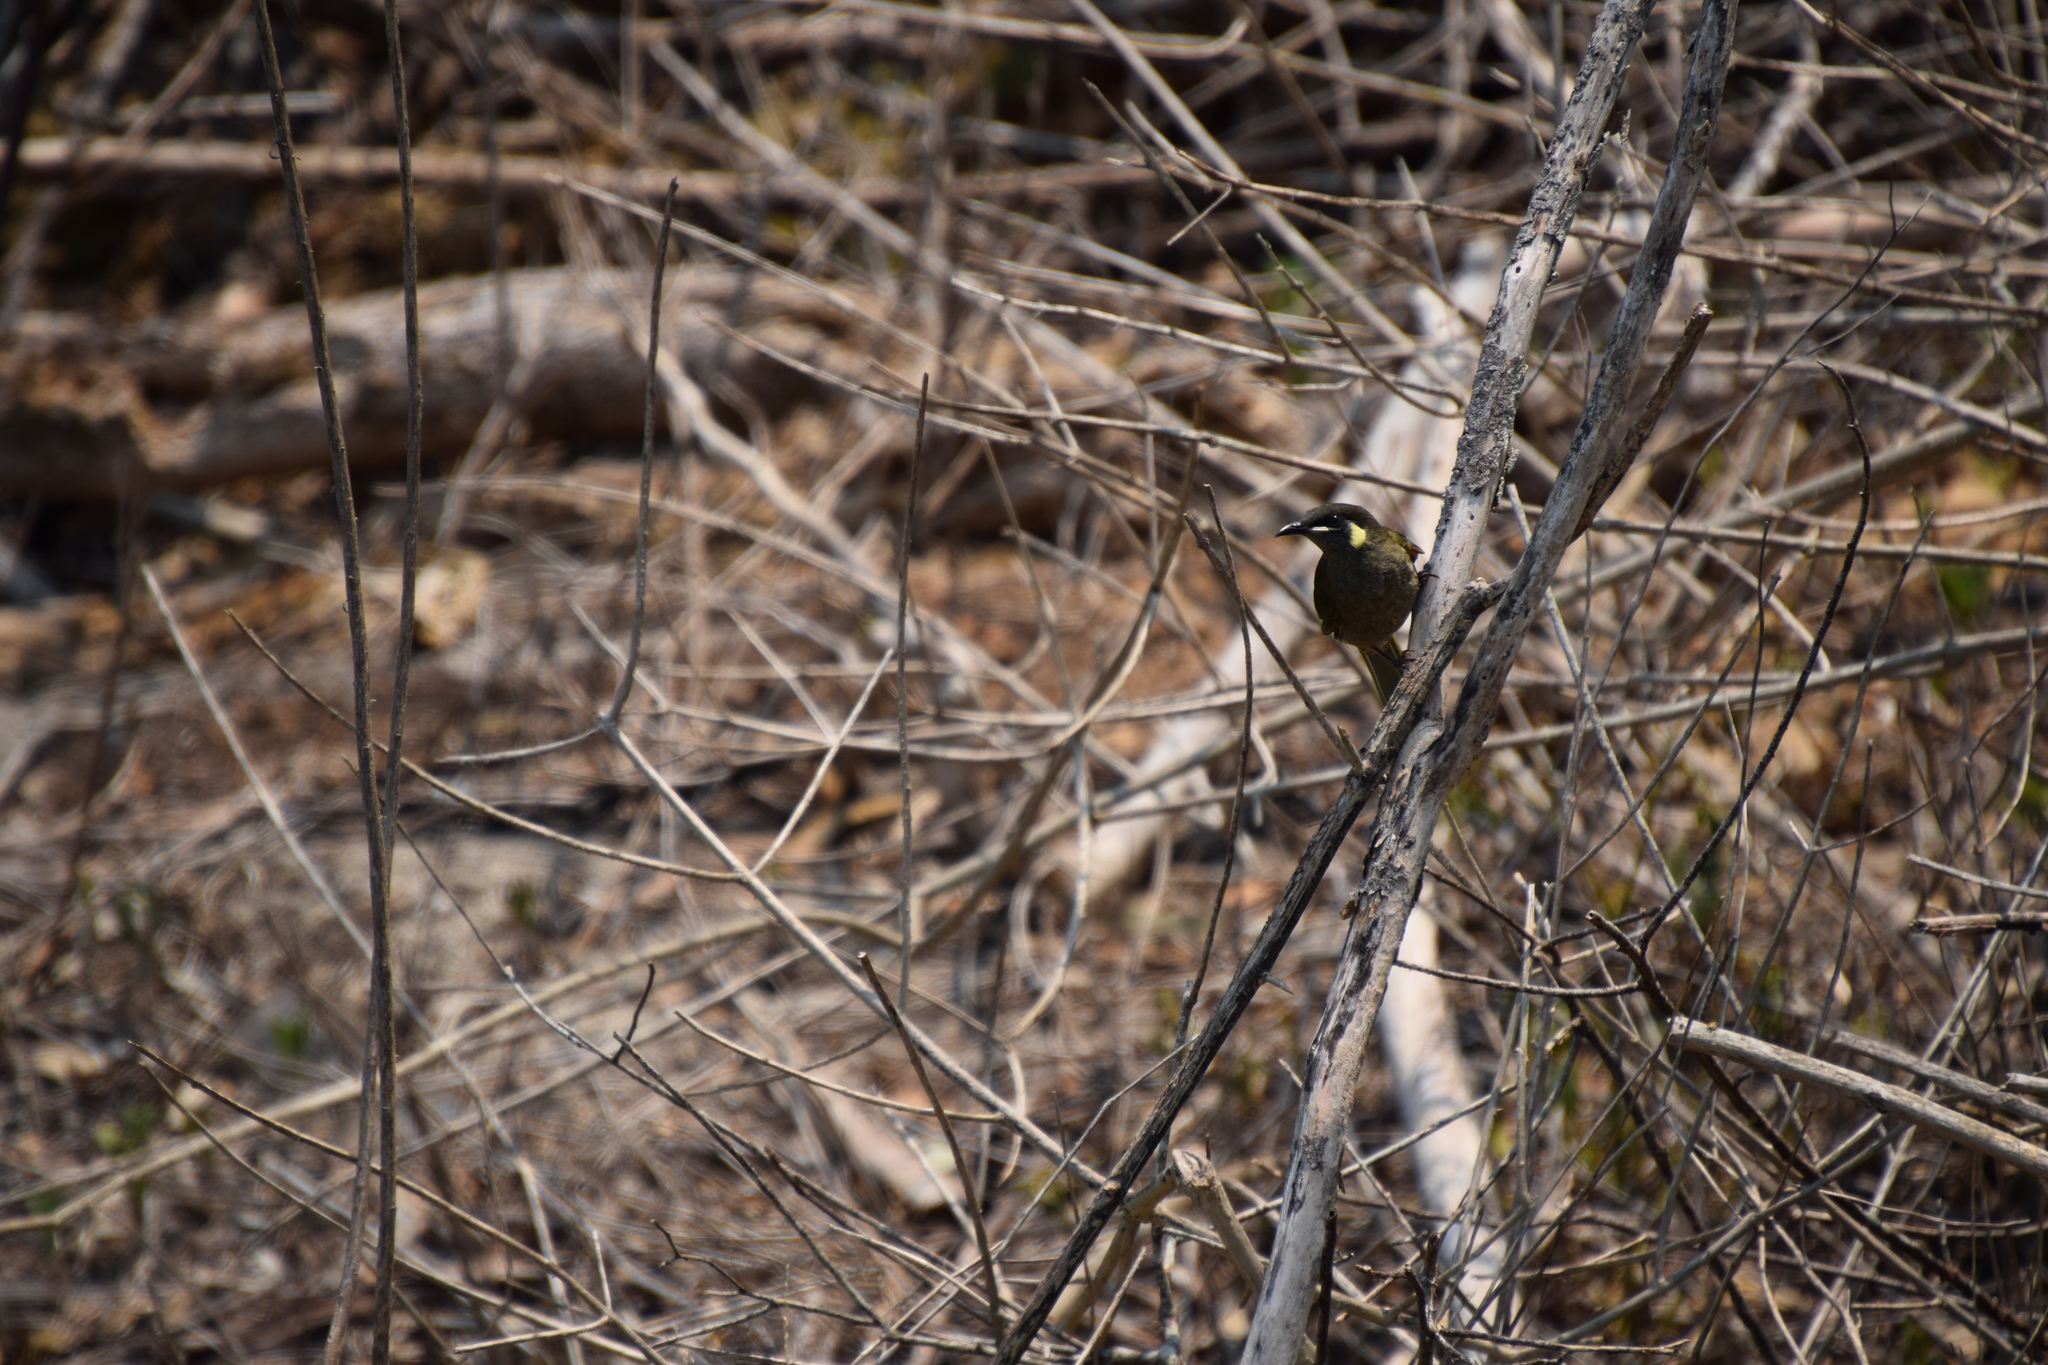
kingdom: Animalia
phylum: Chordata
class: Aves
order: Passeriformes
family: Meliphagidae
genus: Meliphaga
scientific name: Meliphaga lewinii
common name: Lewin's honeyeater
